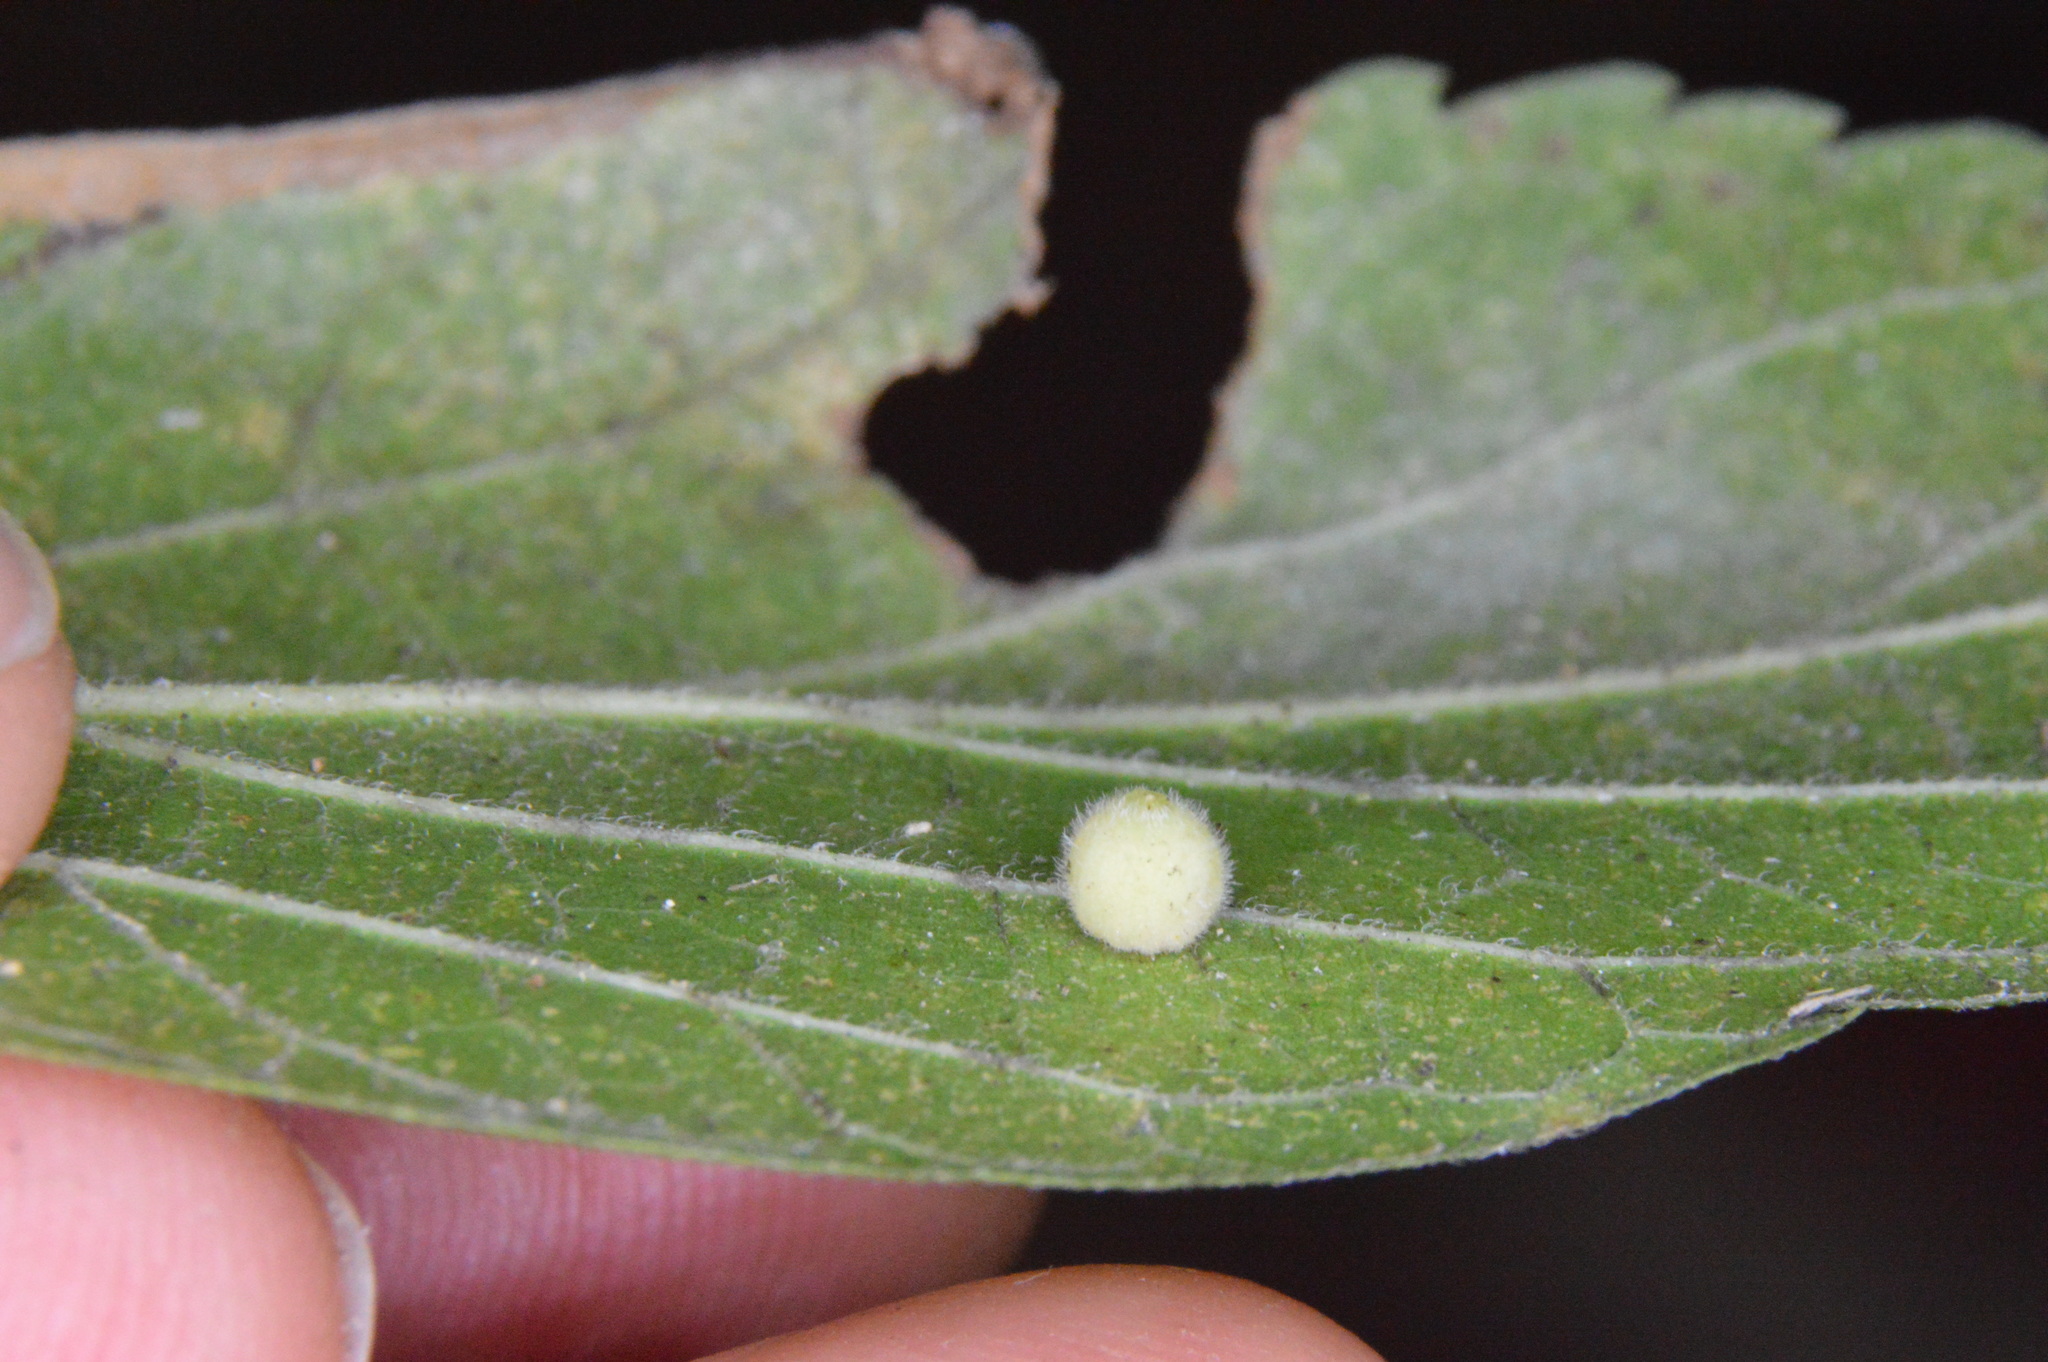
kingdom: Animalia
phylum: Arthropoda
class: Insecta
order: Diptera
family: Cecidomyiidae
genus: Celticecis
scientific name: Celticecis globosa
